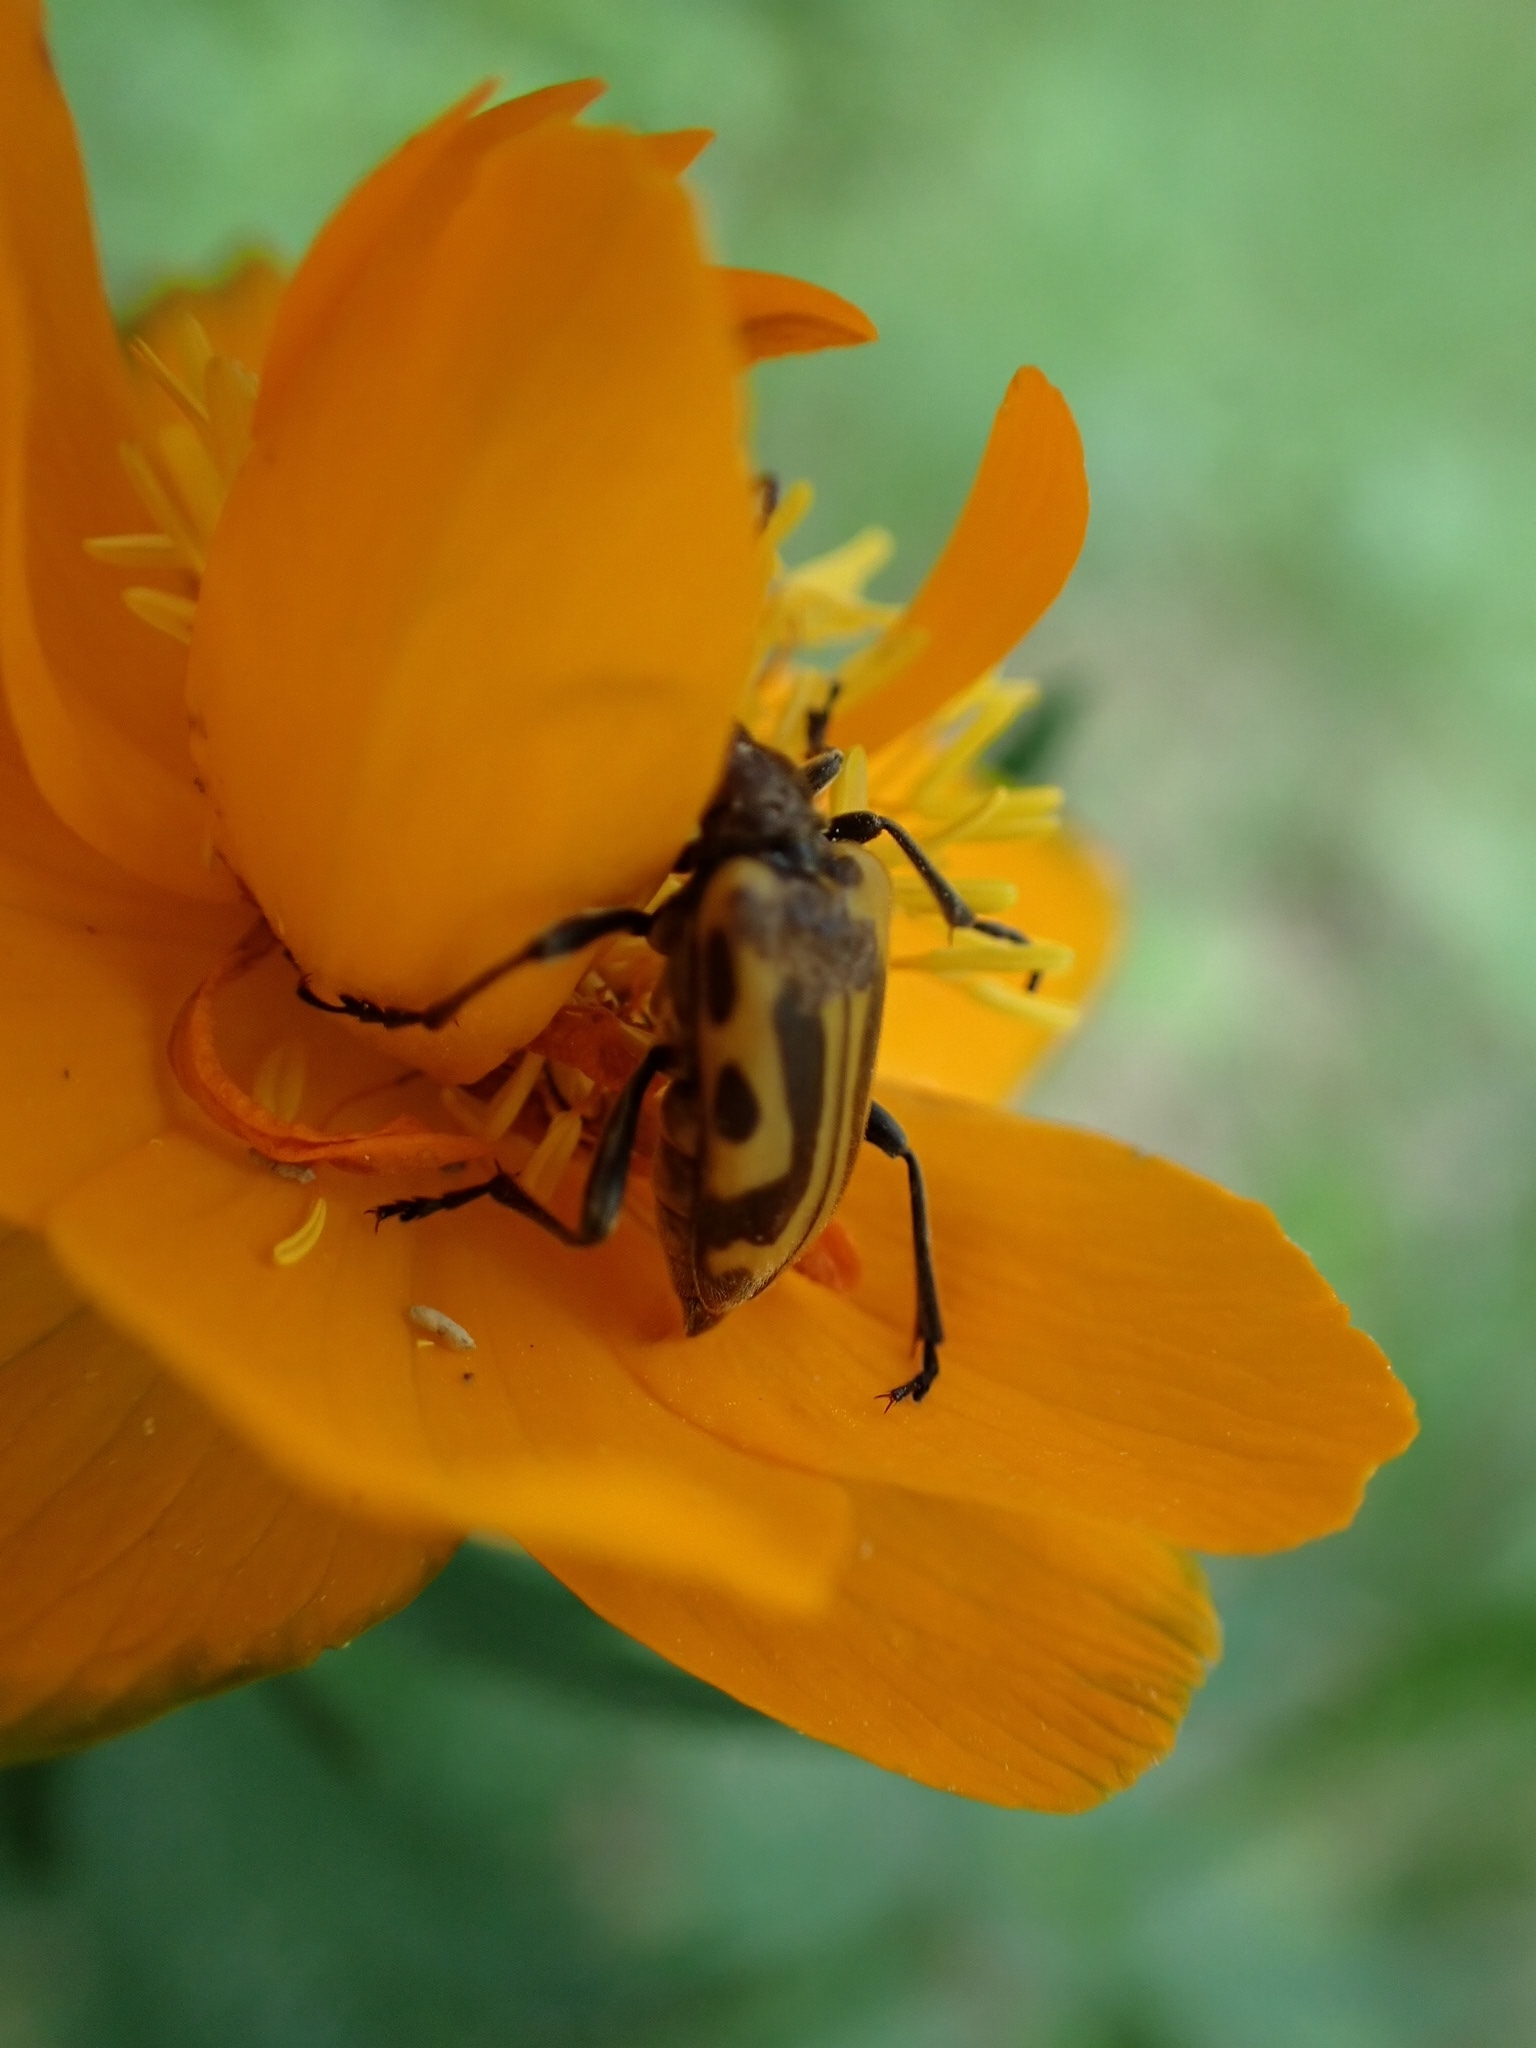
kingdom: Animalia
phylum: Arthropoda
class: Insecta
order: Coleoptera
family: Cerambycidae
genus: Brachyta
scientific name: Brachyta interrogationis
